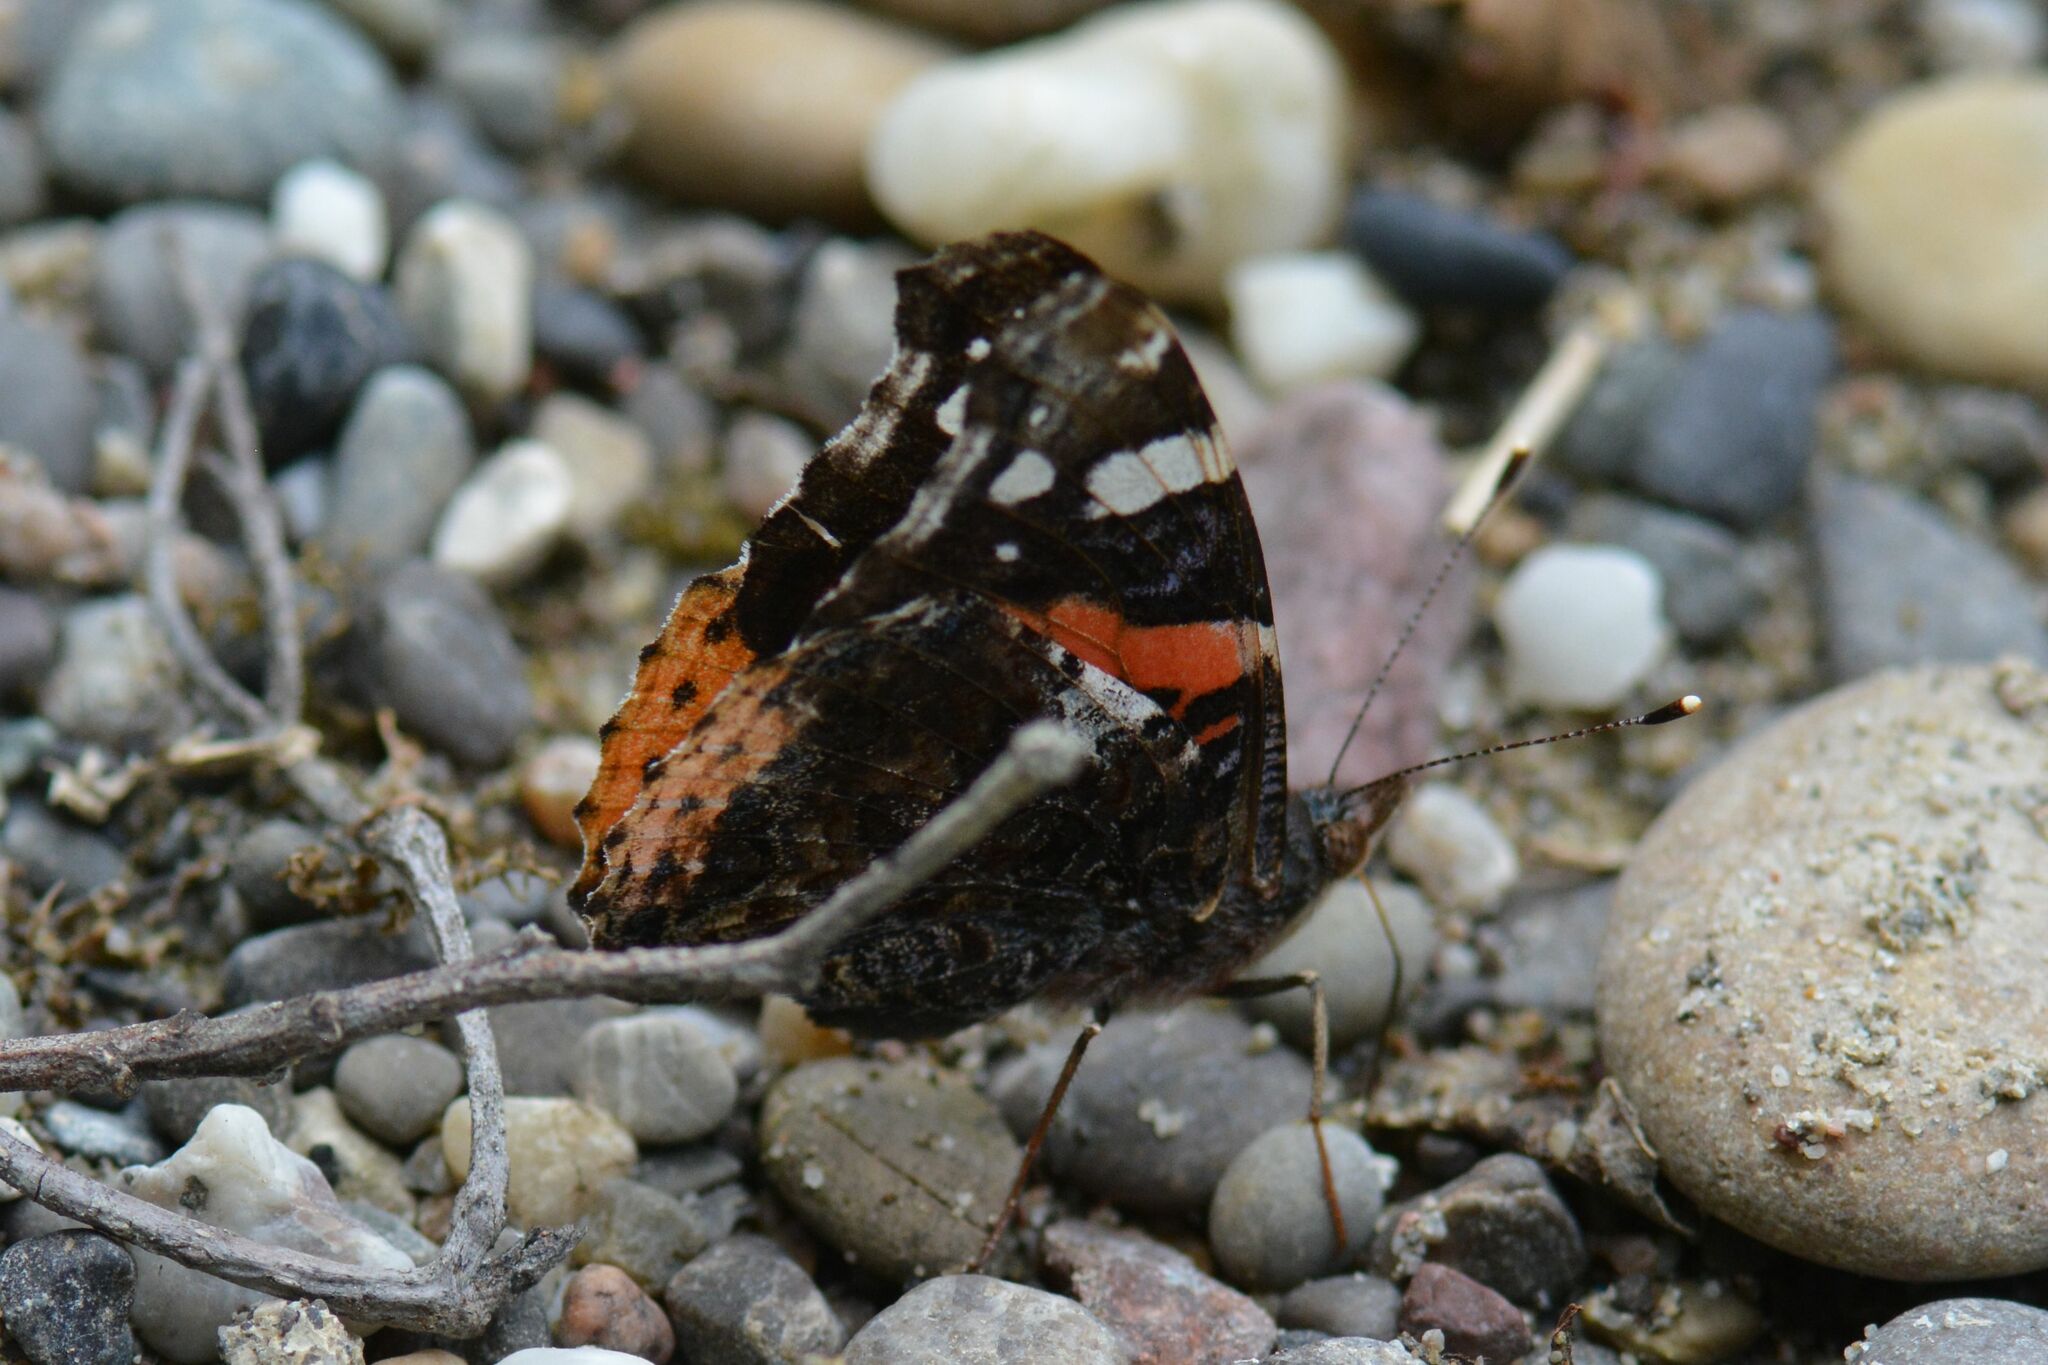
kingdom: Animalia
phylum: Arthropoda
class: Insecta
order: Lepidoptera
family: Nymphalidae
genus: Vanessa
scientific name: Vanessa atalanta
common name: Red admiral
